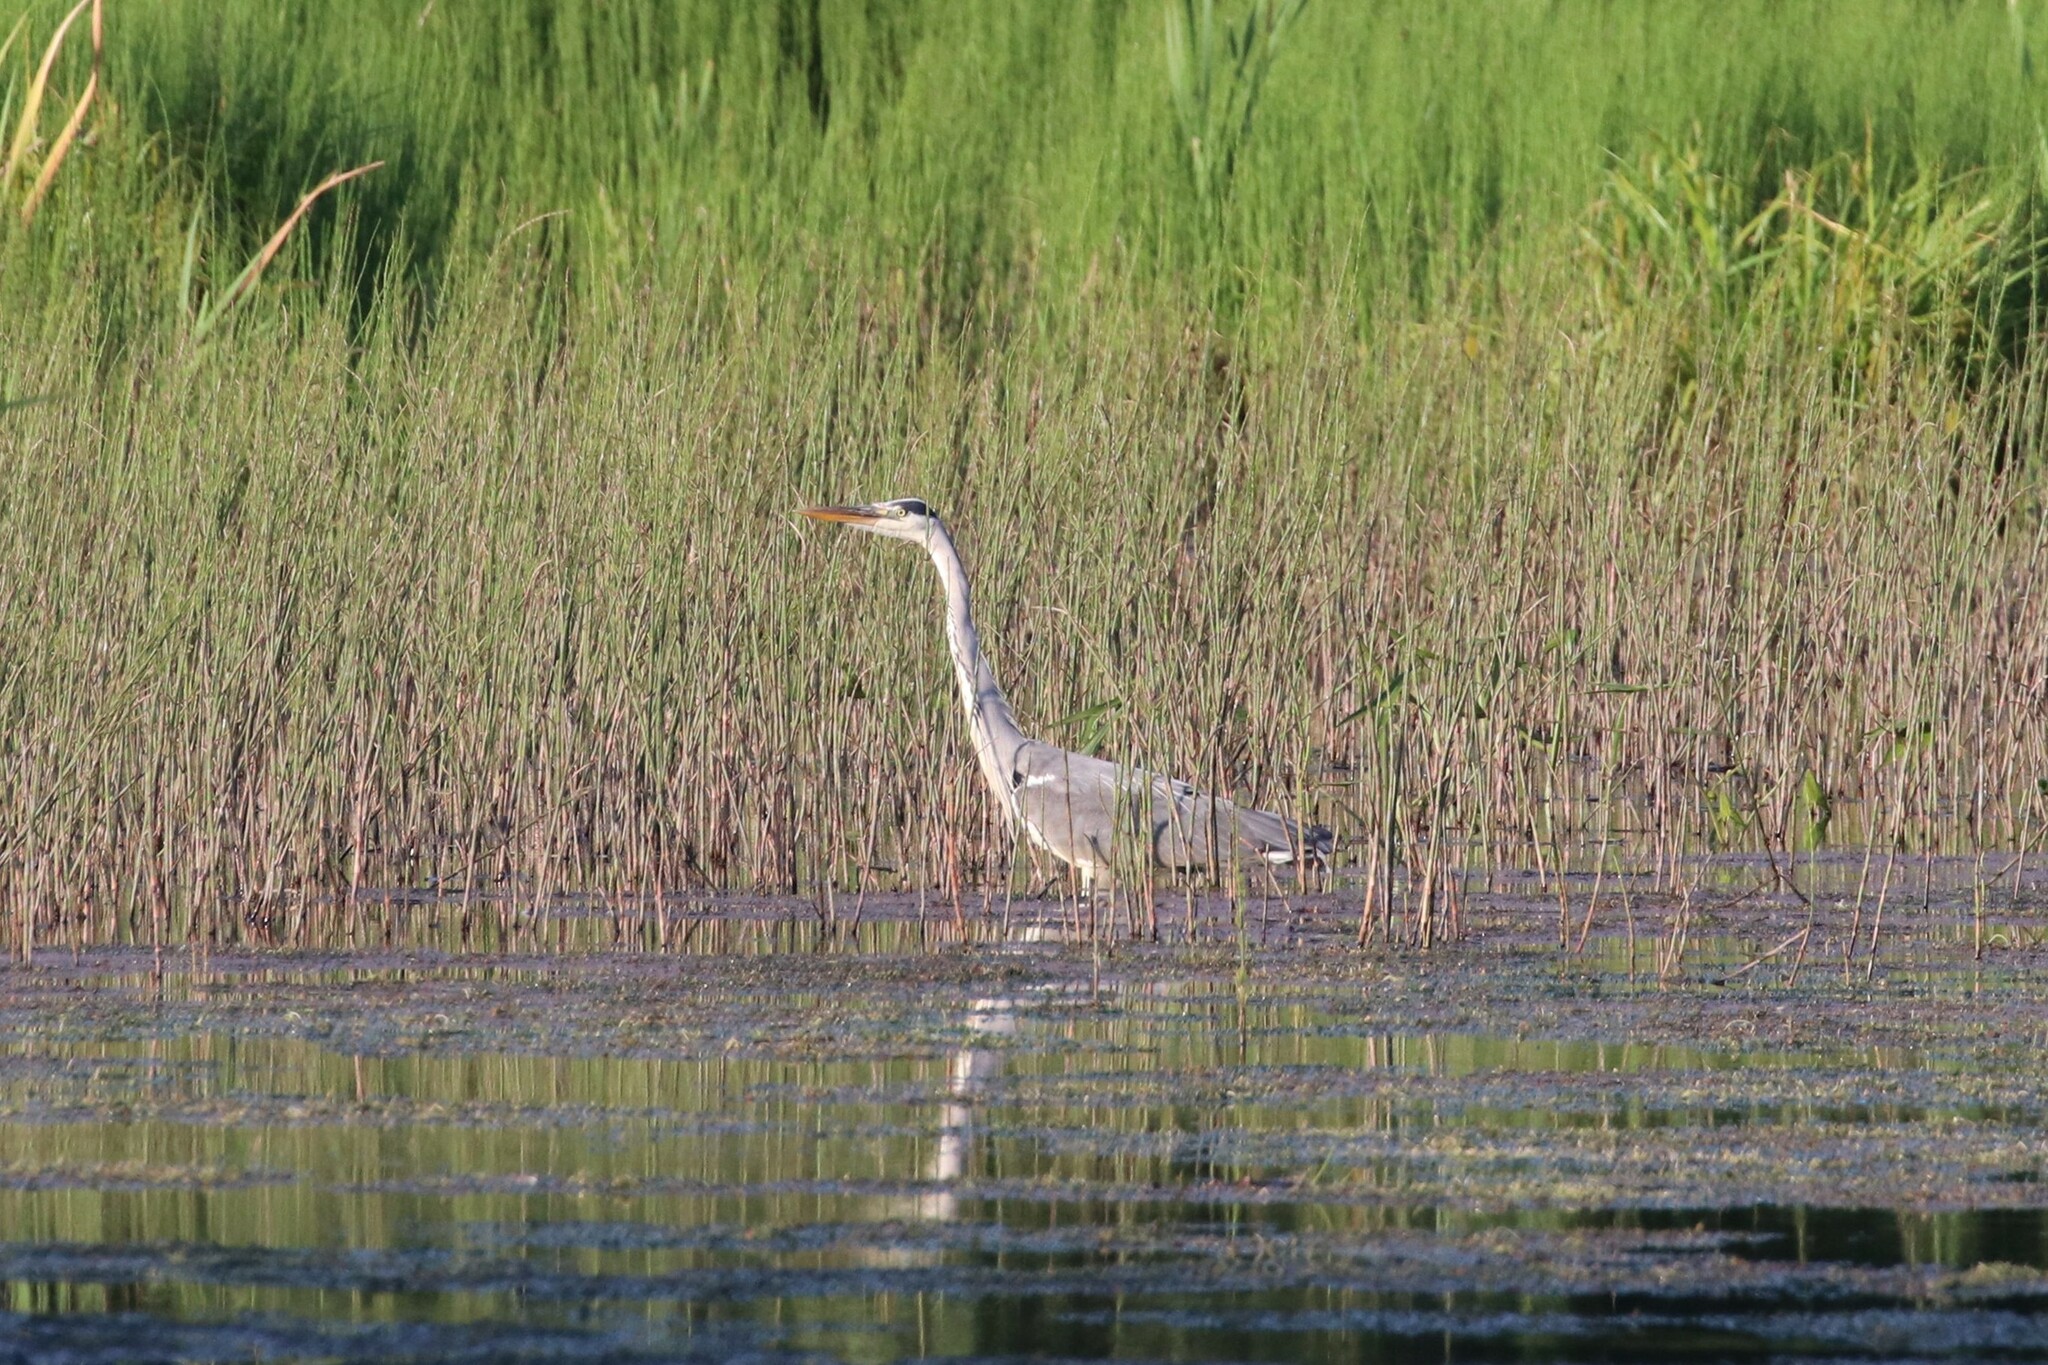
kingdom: Animalia
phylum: Chordata
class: Aves
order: Pelecaniformes
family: Ardeidae
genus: Ardea
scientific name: Ardea cinerea
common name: Grey heron
